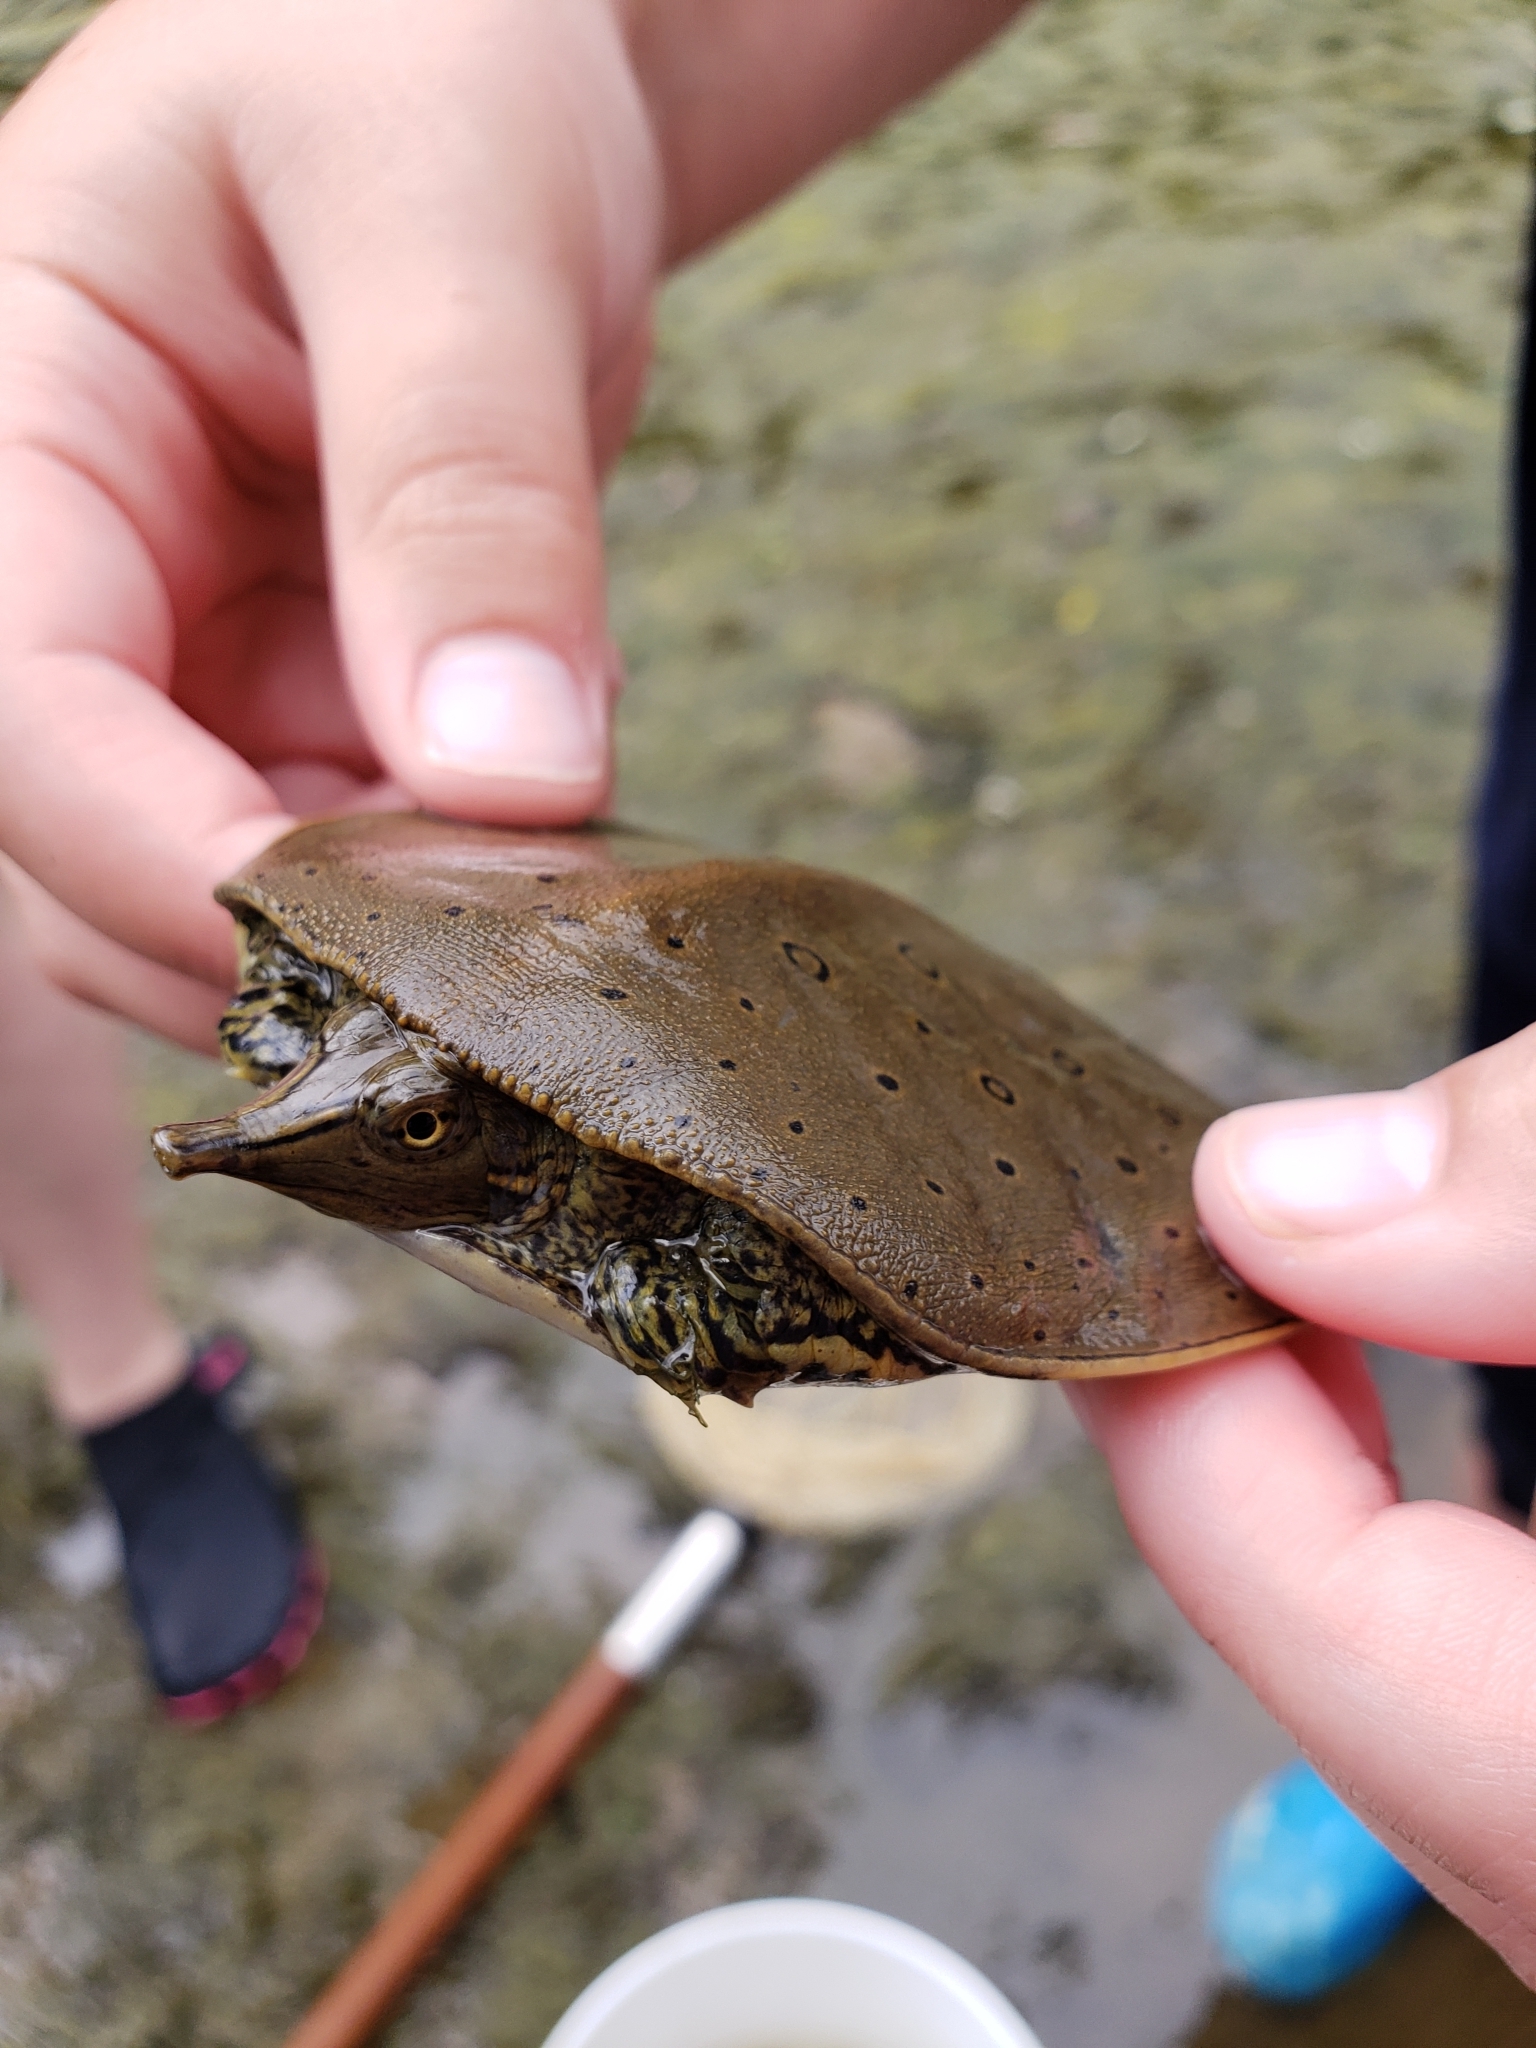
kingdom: Animalia
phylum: Chordata
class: Testudines
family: Trionychidae
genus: Apalone
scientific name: Apalone spinifera
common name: Spiny softshell turtle
